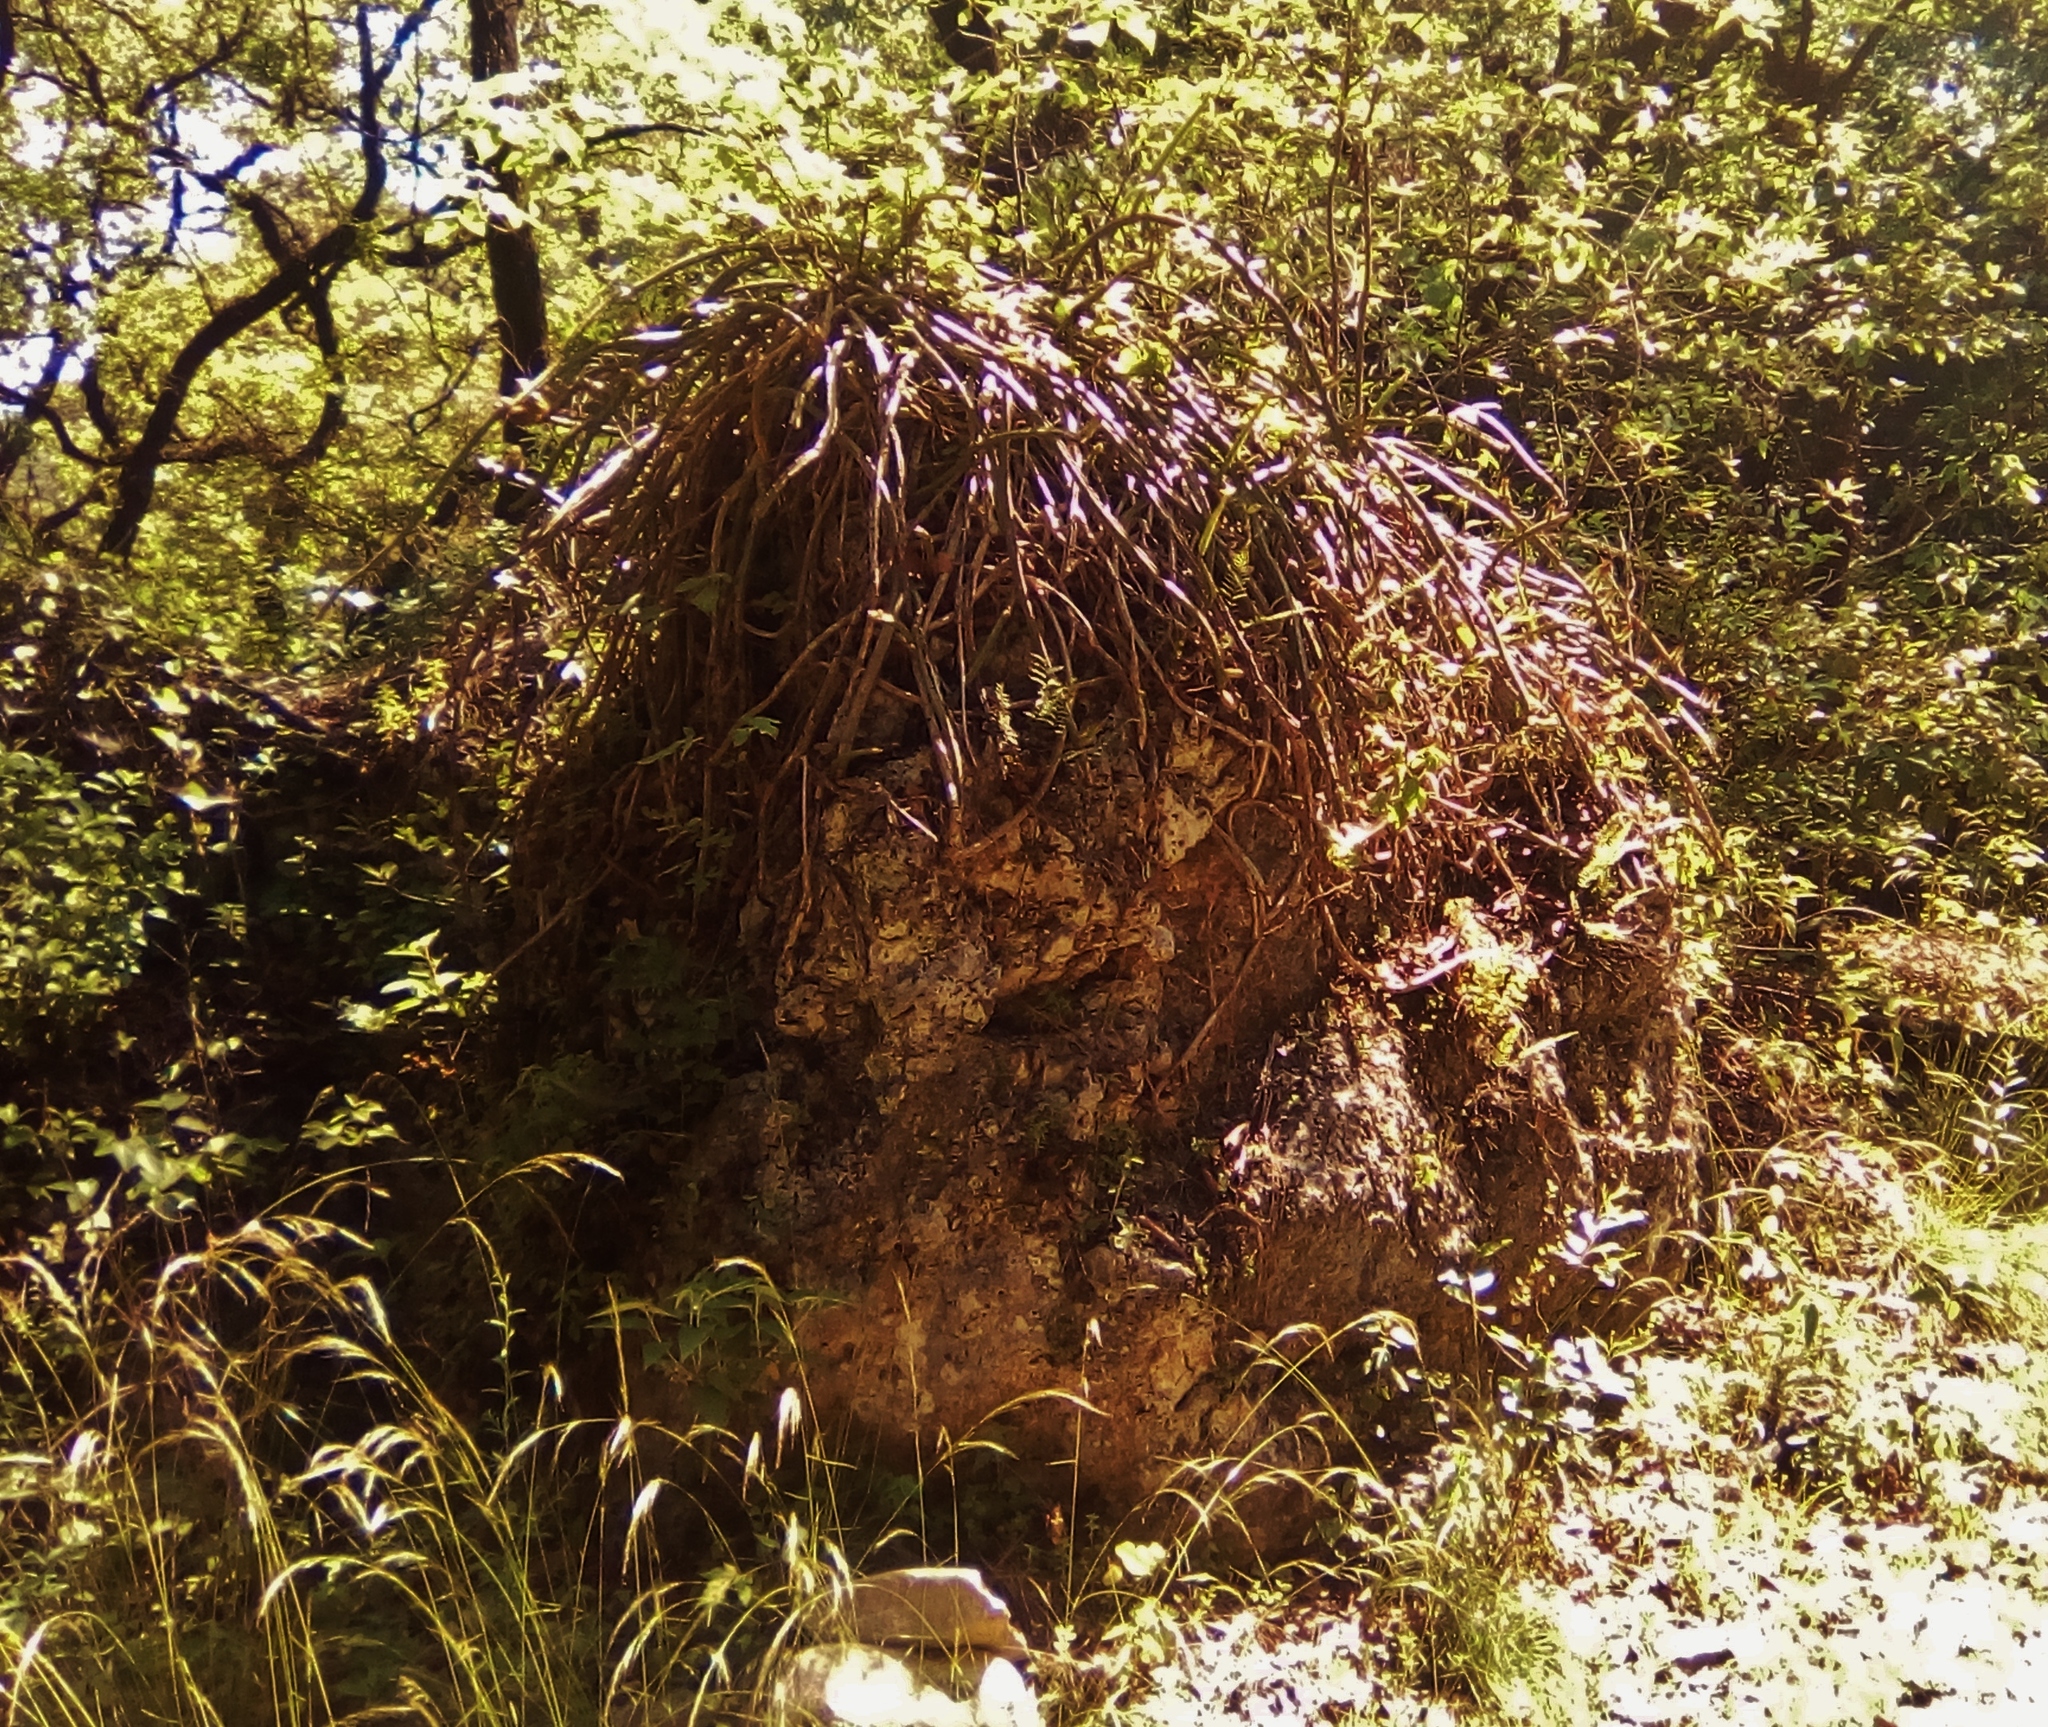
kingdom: Plantae
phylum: Tracheophyta
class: Magnoliopsida
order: Caryophyllales
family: Cactaceae
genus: Selenicereus
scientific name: Selenicereus spinulosus
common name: Nightblooming cereus
